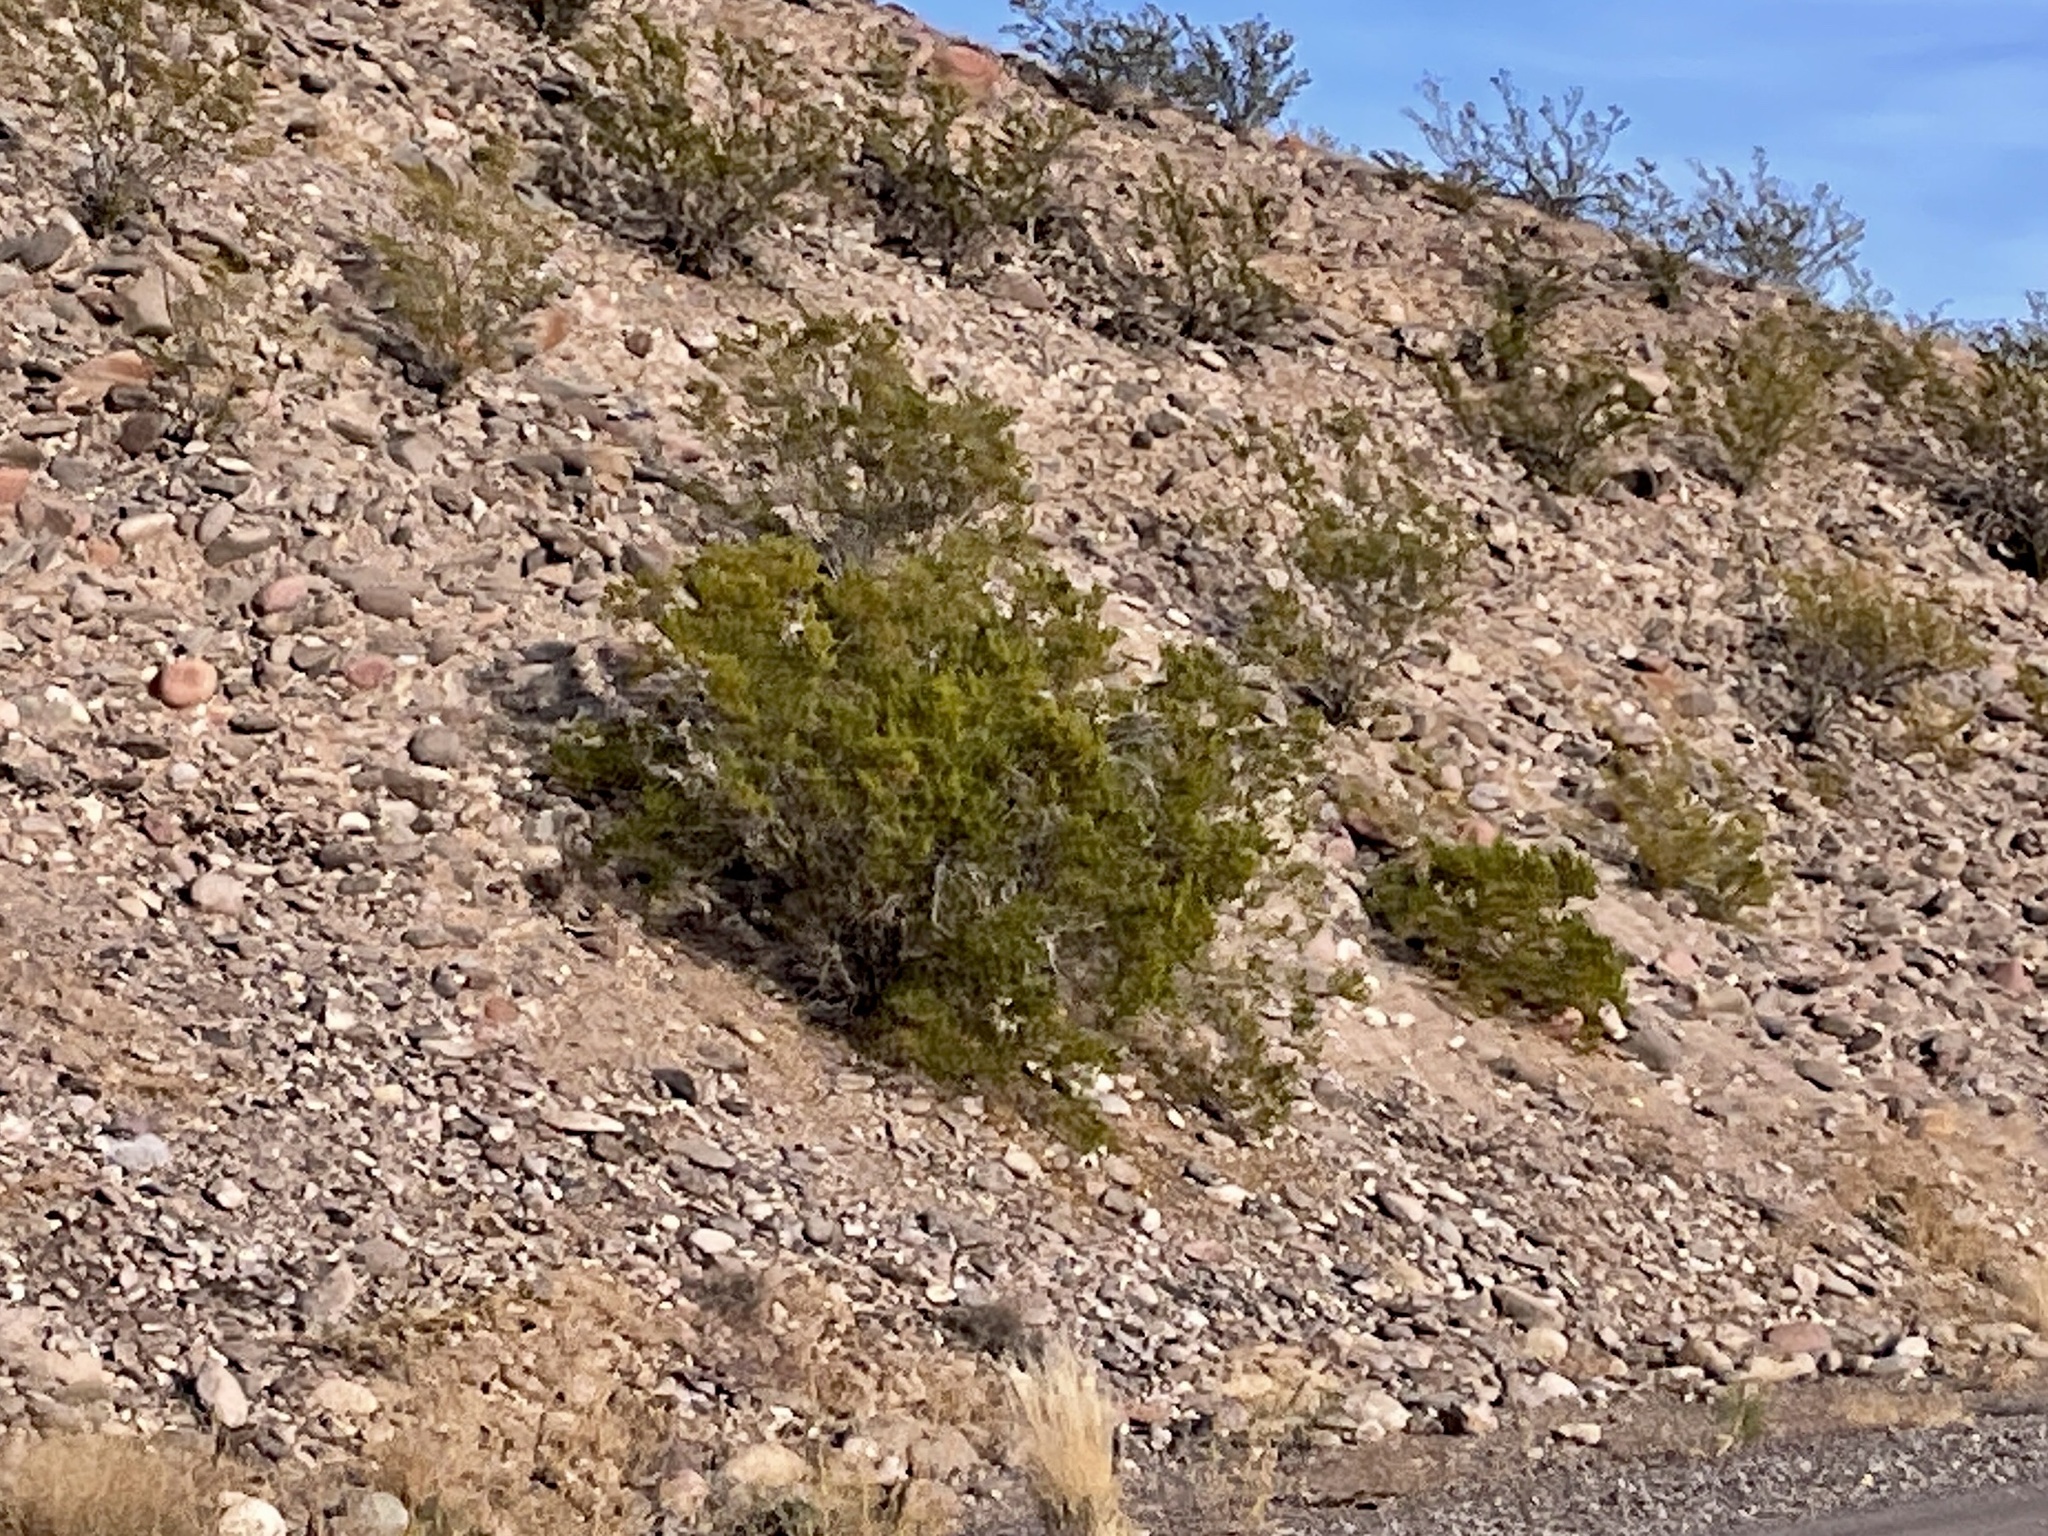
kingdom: Plantae
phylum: Tracheophyta
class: Magnoliopsida
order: Zygophyllales
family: Zygophyllaceae
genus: Larrea
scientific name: Larrea tridentata
